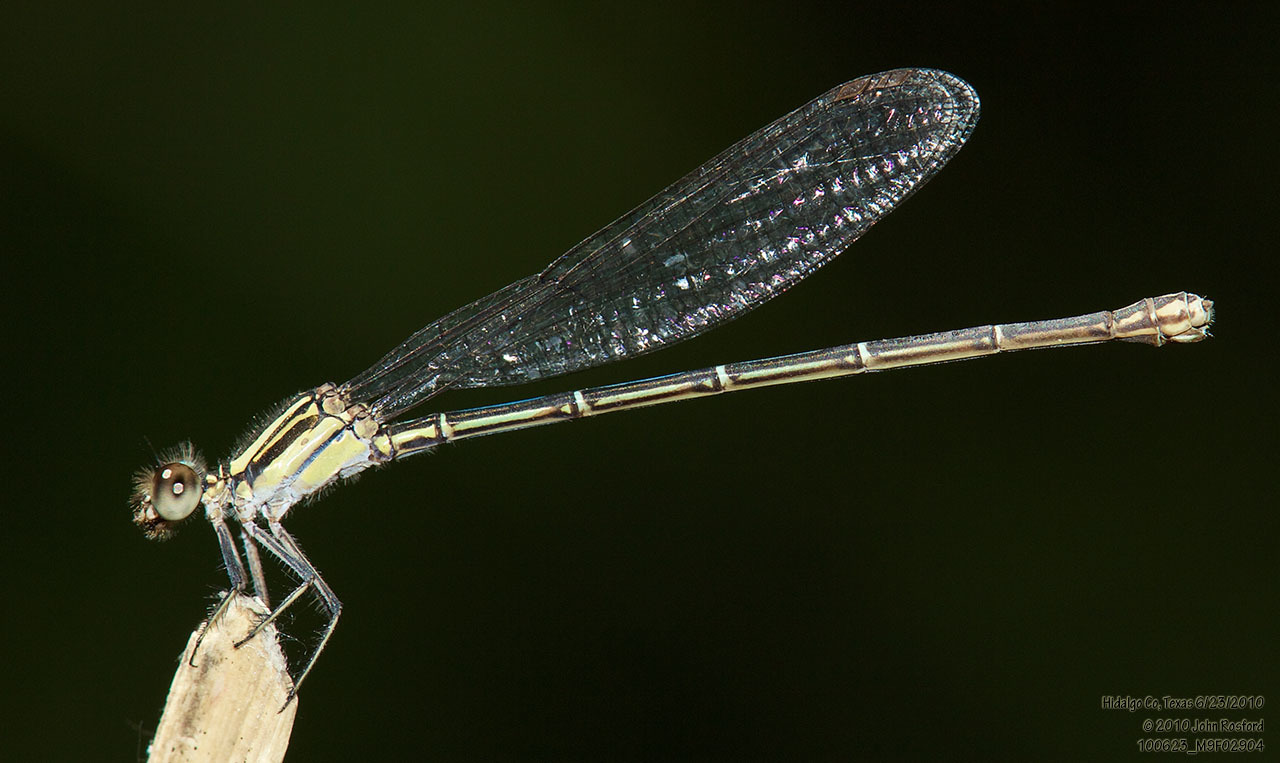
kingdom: Animalia
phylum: Arthropoda
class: Insecta
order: Odonata
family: Coenagrionidae
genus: Argia
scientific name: Argia translata
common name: Dusky dancer
